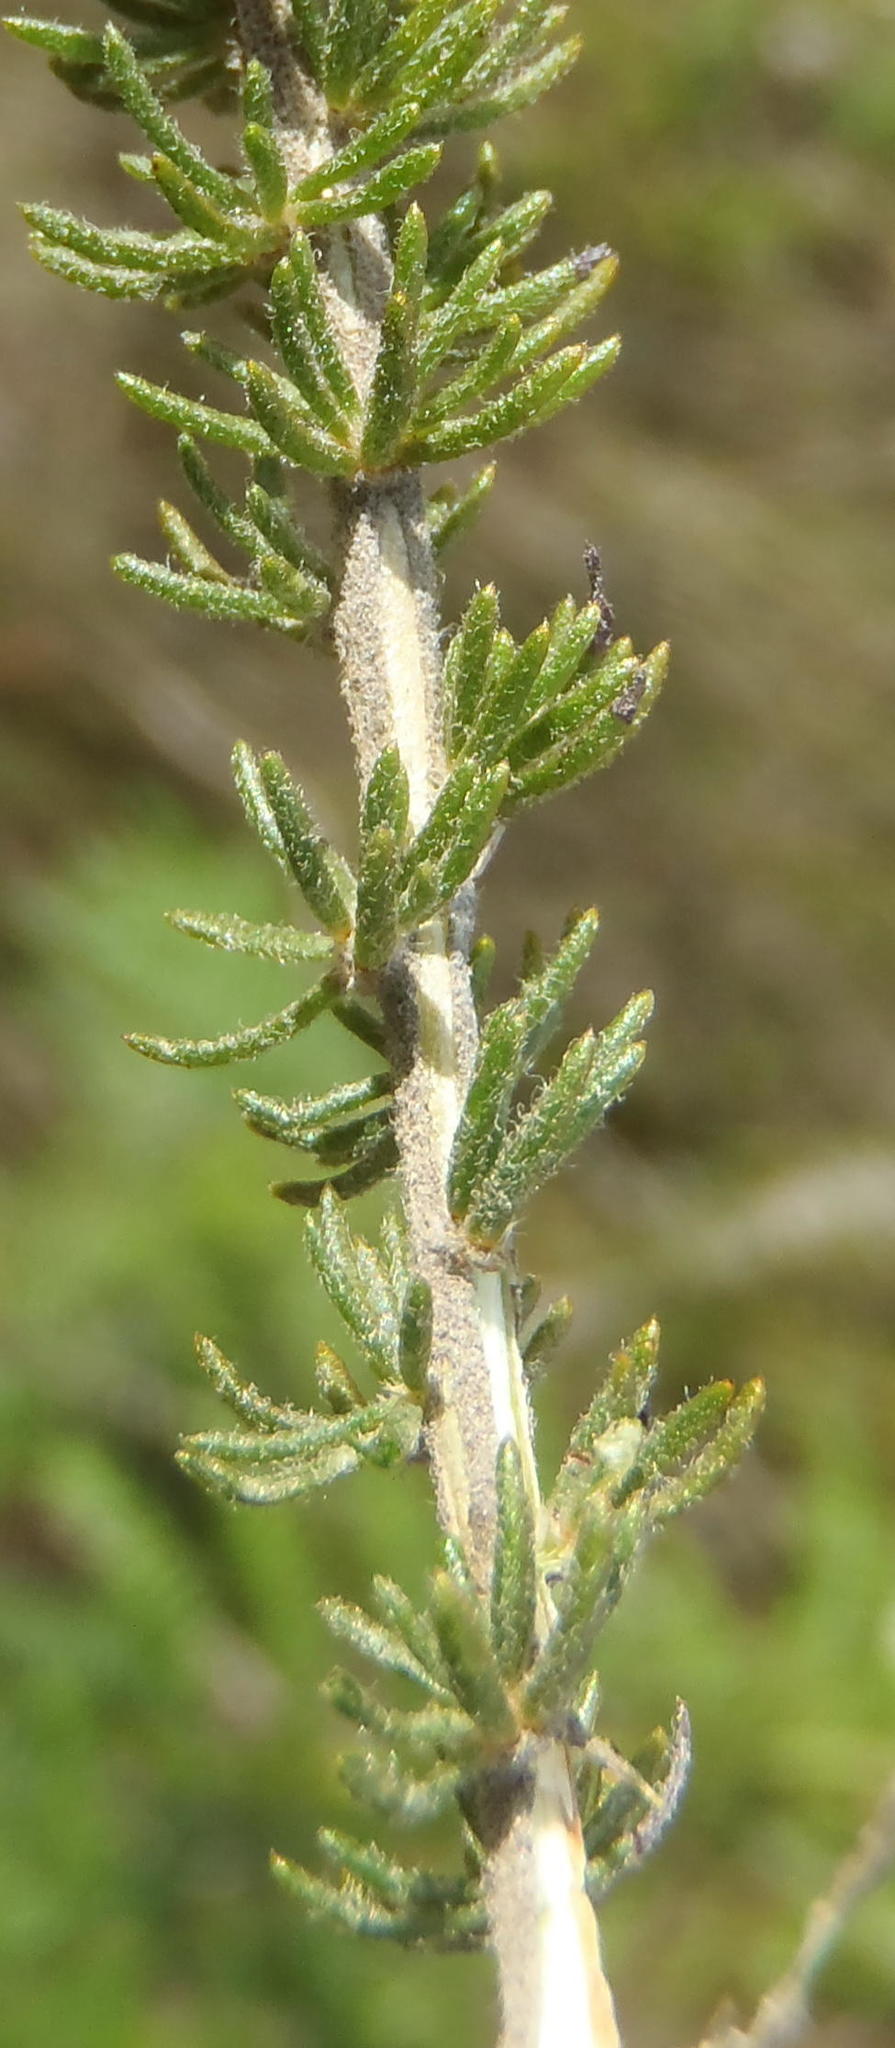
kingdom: Plantae
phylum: Tracheophyta
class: Magnoliopsida
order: Fabales
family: Fabaceae
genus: Aspalathus
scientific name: Aspalathus ciliaris
